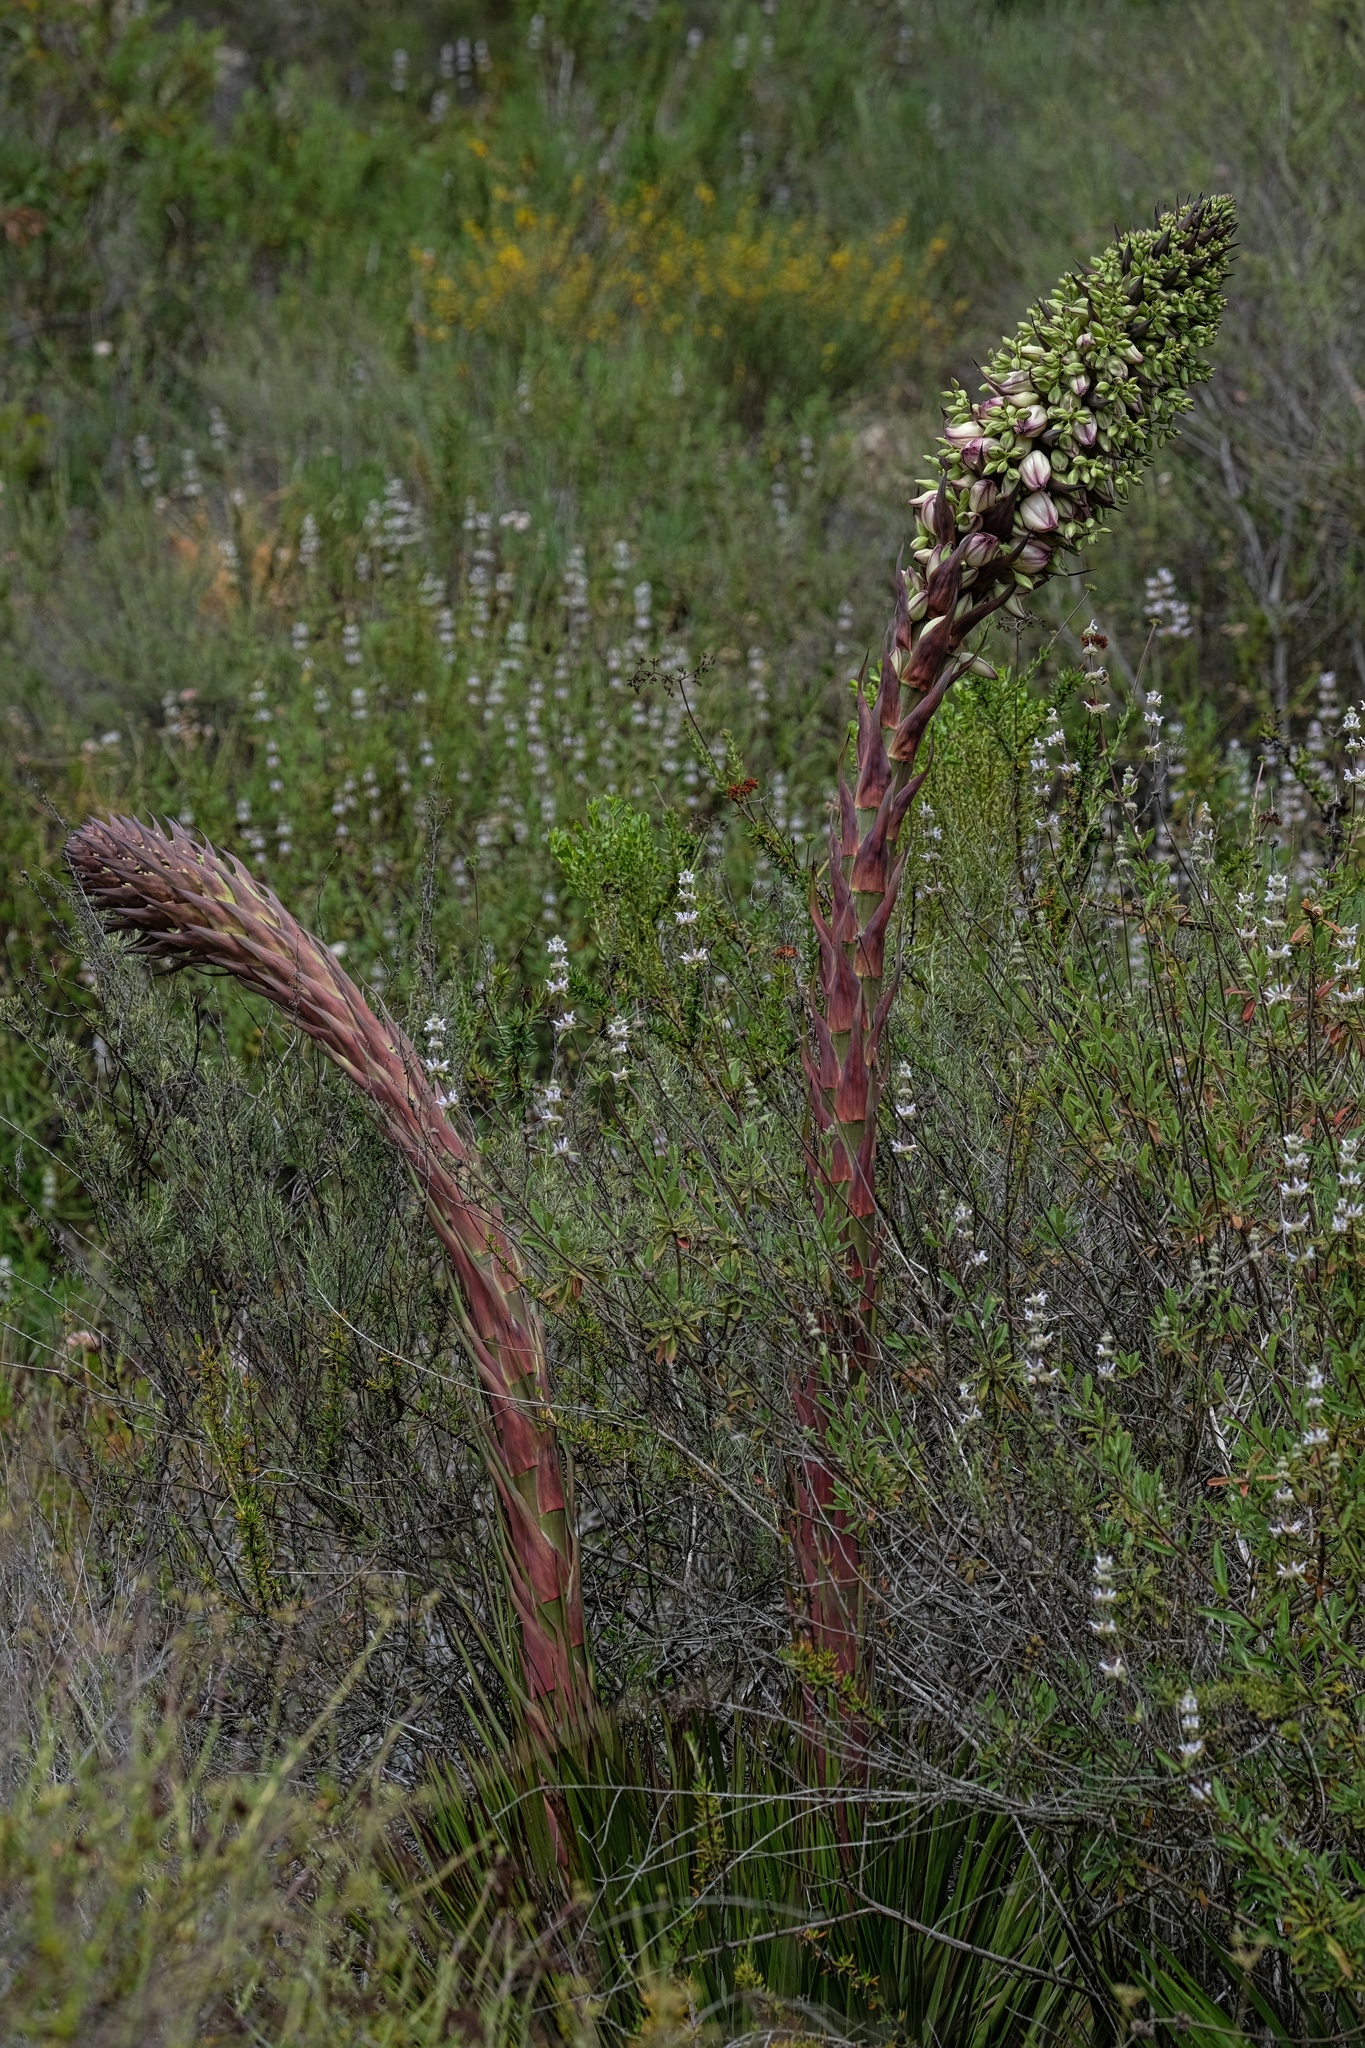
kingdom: Plantae
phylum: Tracheophyta
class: Liliopsida
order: Asparagales
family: Asparagaceae
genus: Hesperoyucca
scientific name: Hesperoyucca whipplei
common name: Our lord's-candle
